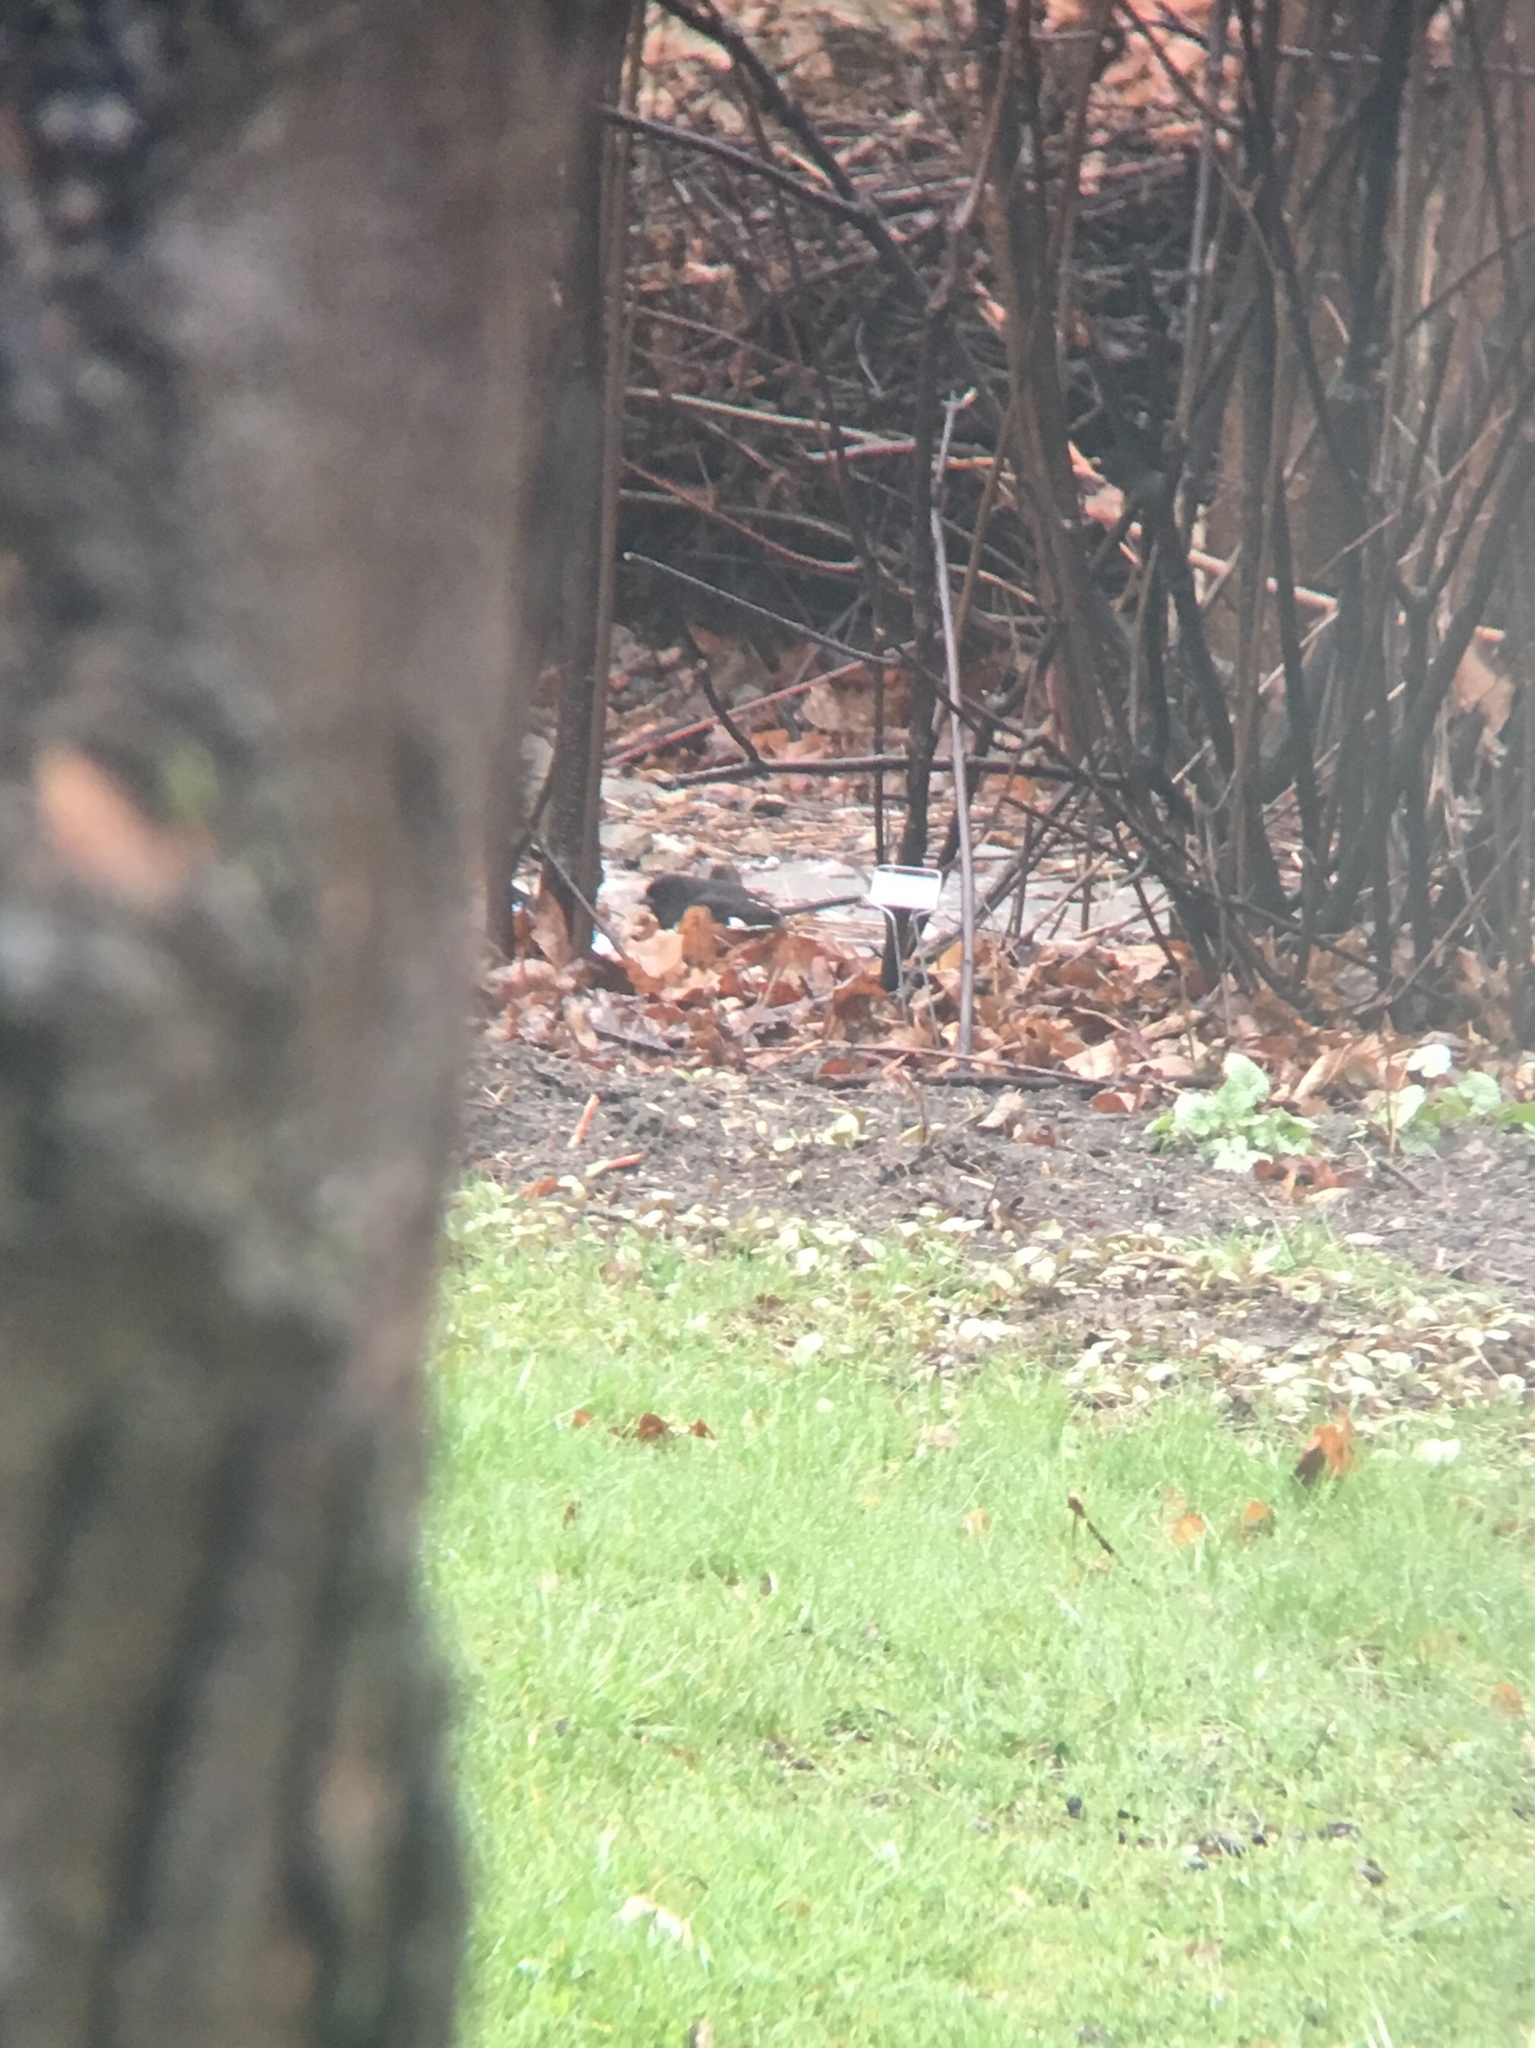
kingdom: Animalia
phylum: Chordata
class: Aves
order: Passeriformes
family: Passerellidae
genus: Pipilo
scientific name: Pipilo erythrophthalmus
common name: Eastern towhee
